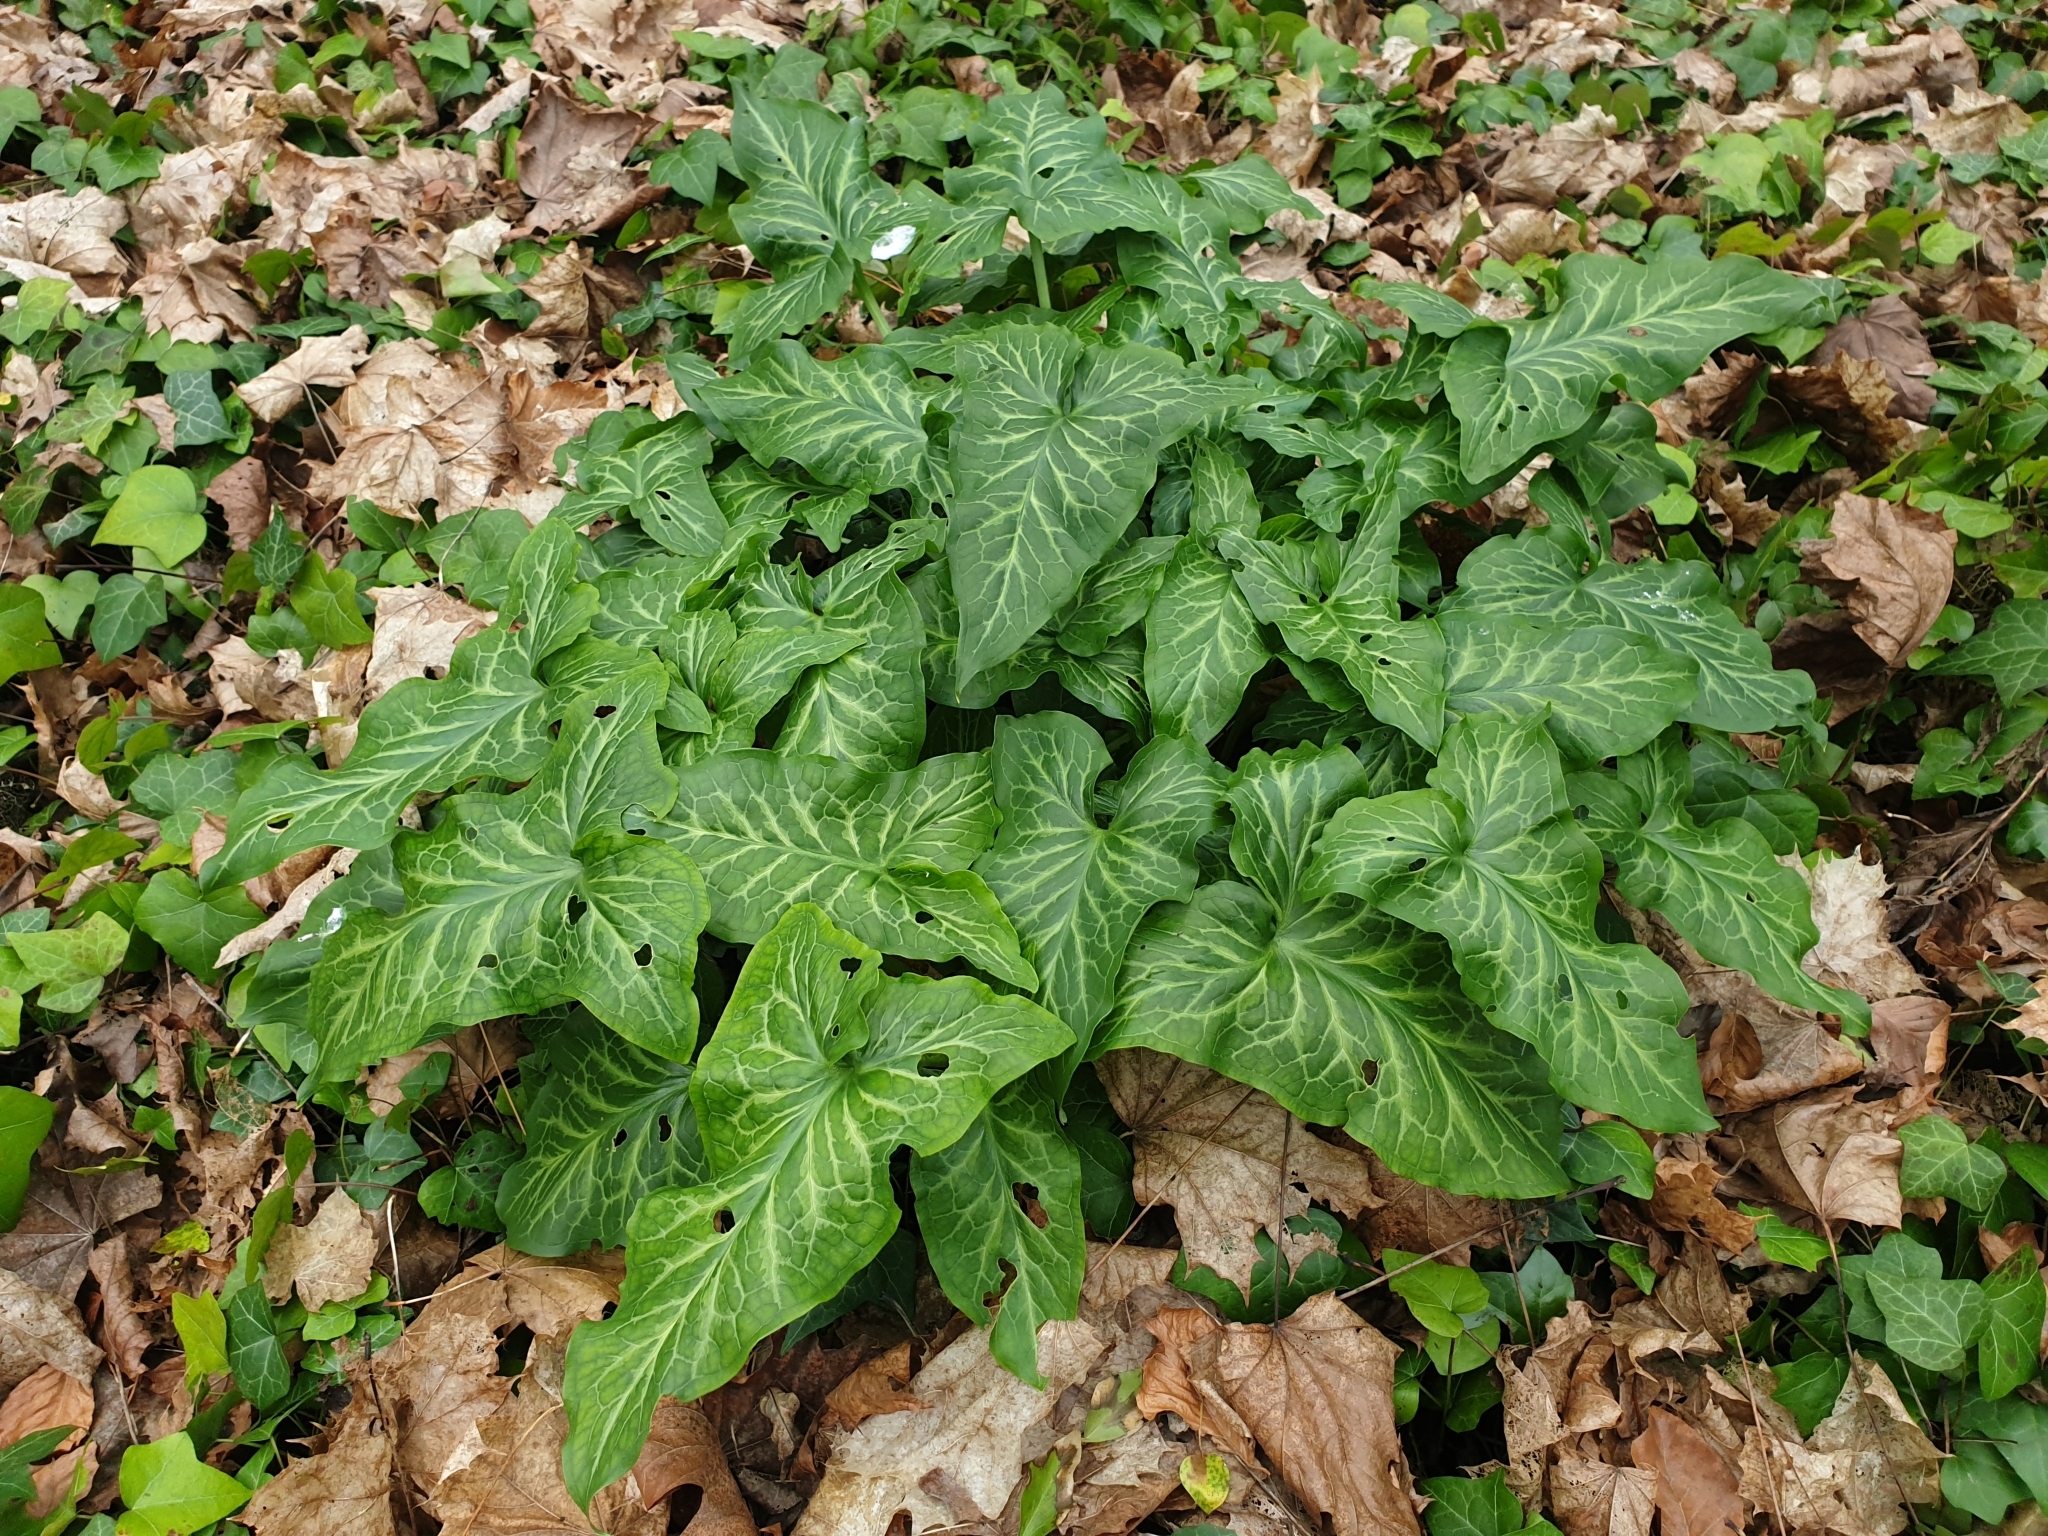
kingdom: Plantae
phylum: Tracheophyta
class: Liliopsida
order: Alismatales
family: Araceae
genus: Arum
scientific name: Arum italicum
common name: Italian lords-and-ladies
